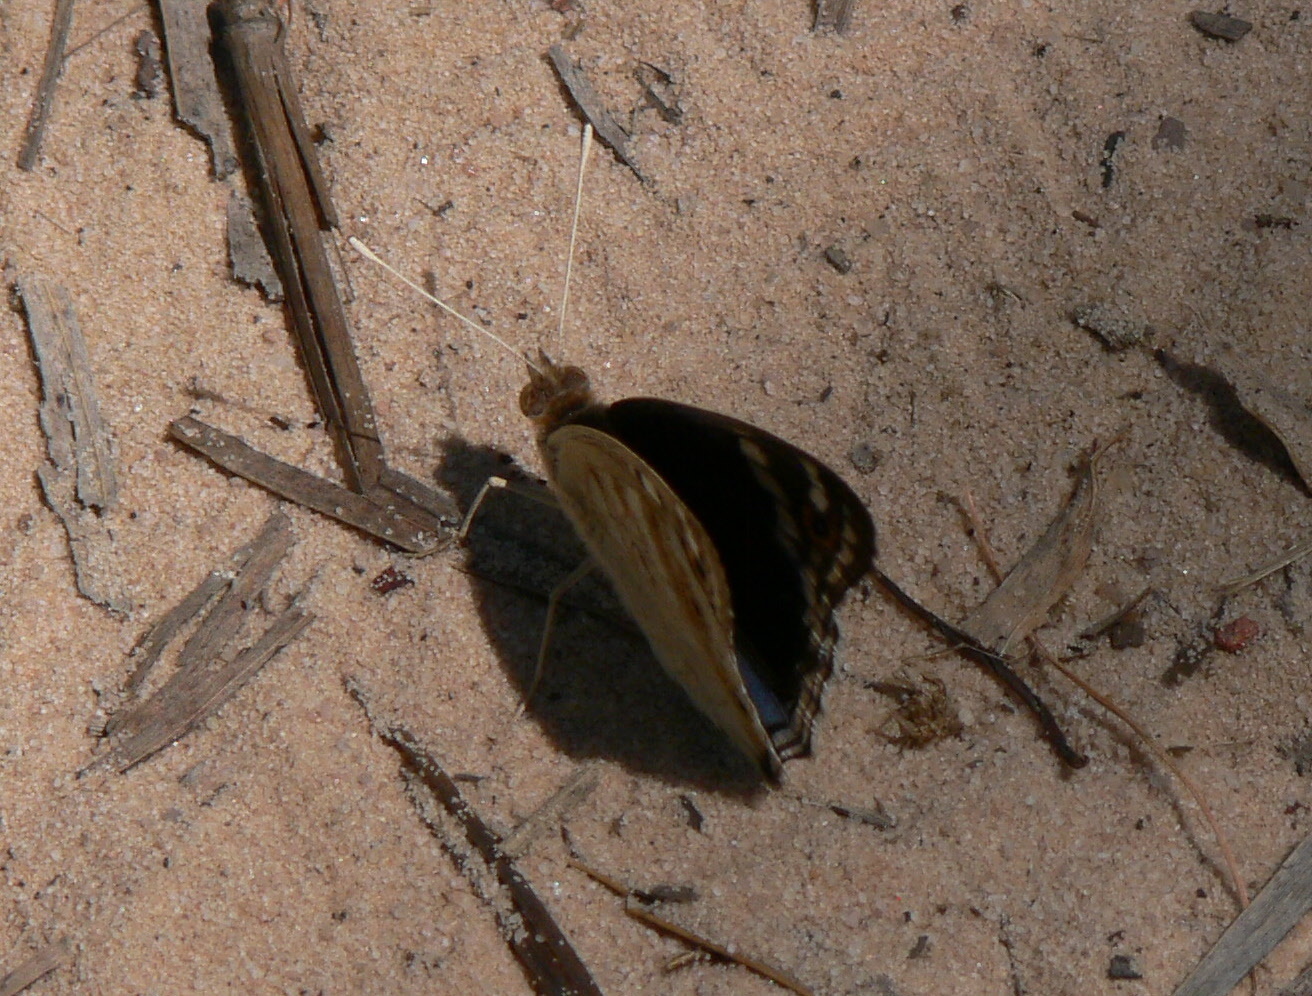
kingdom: Animalia
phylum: Arthropoda
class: Insecta
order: Lepidoptera
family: Nymphalidae
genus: Junonia
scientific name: Junonia orithya
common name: Blue pansy
